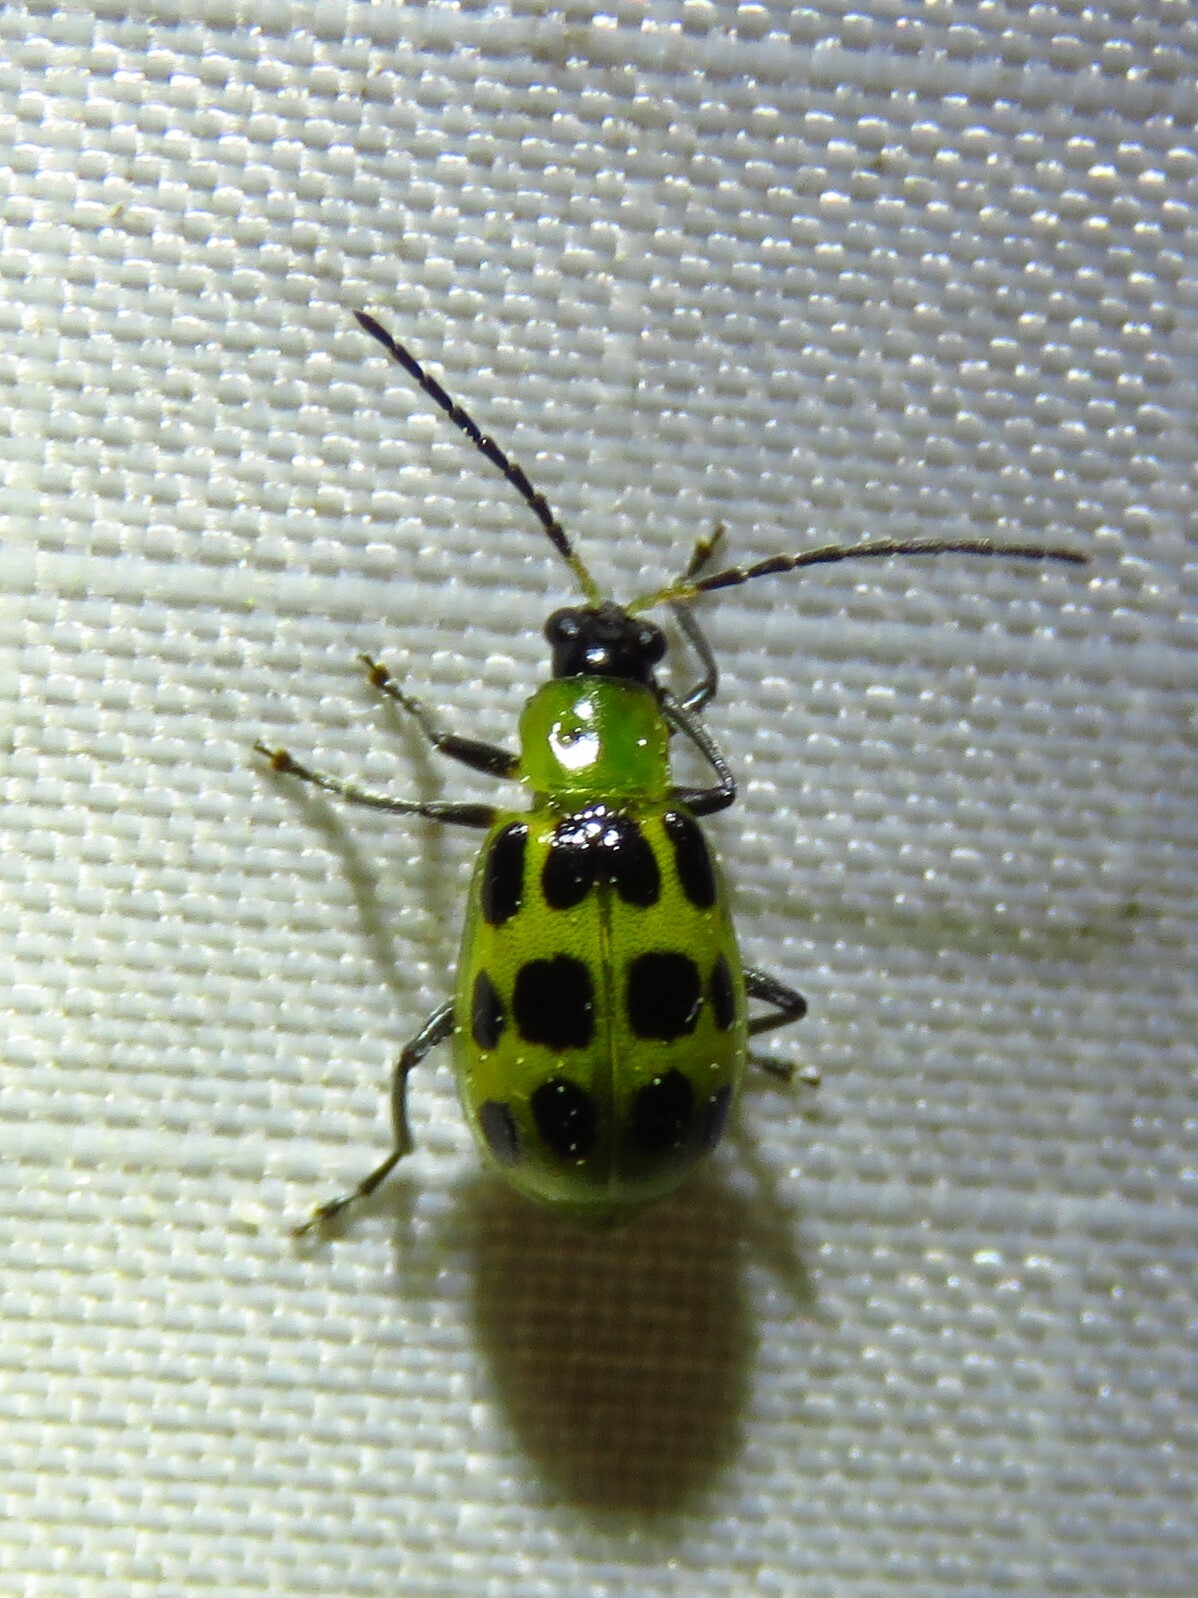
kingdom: Animalia
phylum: Arthropoda
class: Insecta
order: Coleoptera
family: Chrysomelidae
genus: Diabrotica
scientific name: Diabrotica undecimpunctata
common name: Spotted cucumber beetle
